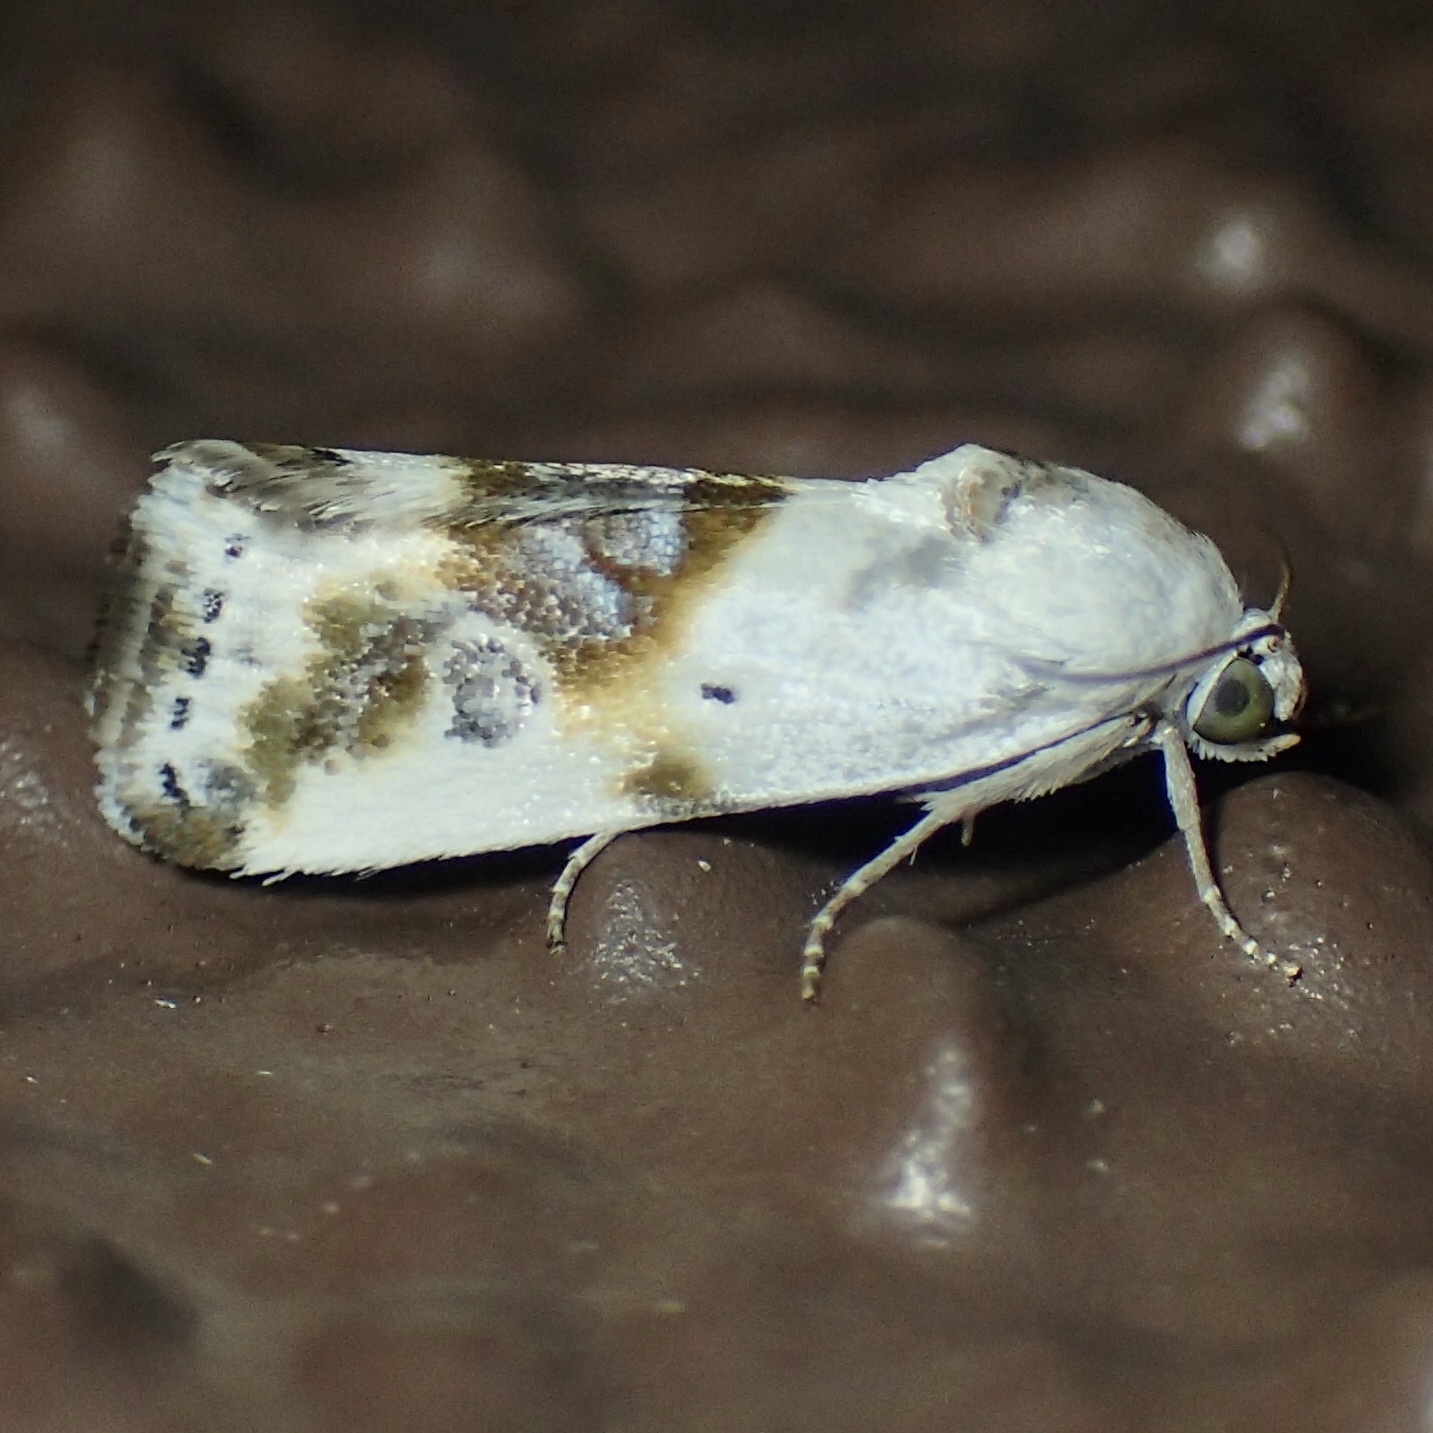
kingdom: Animalia
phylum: Arthropoda
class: Insecta
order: Lepidoptera
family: Noctuidae
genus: Acontia
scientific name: Acontia candefacta
